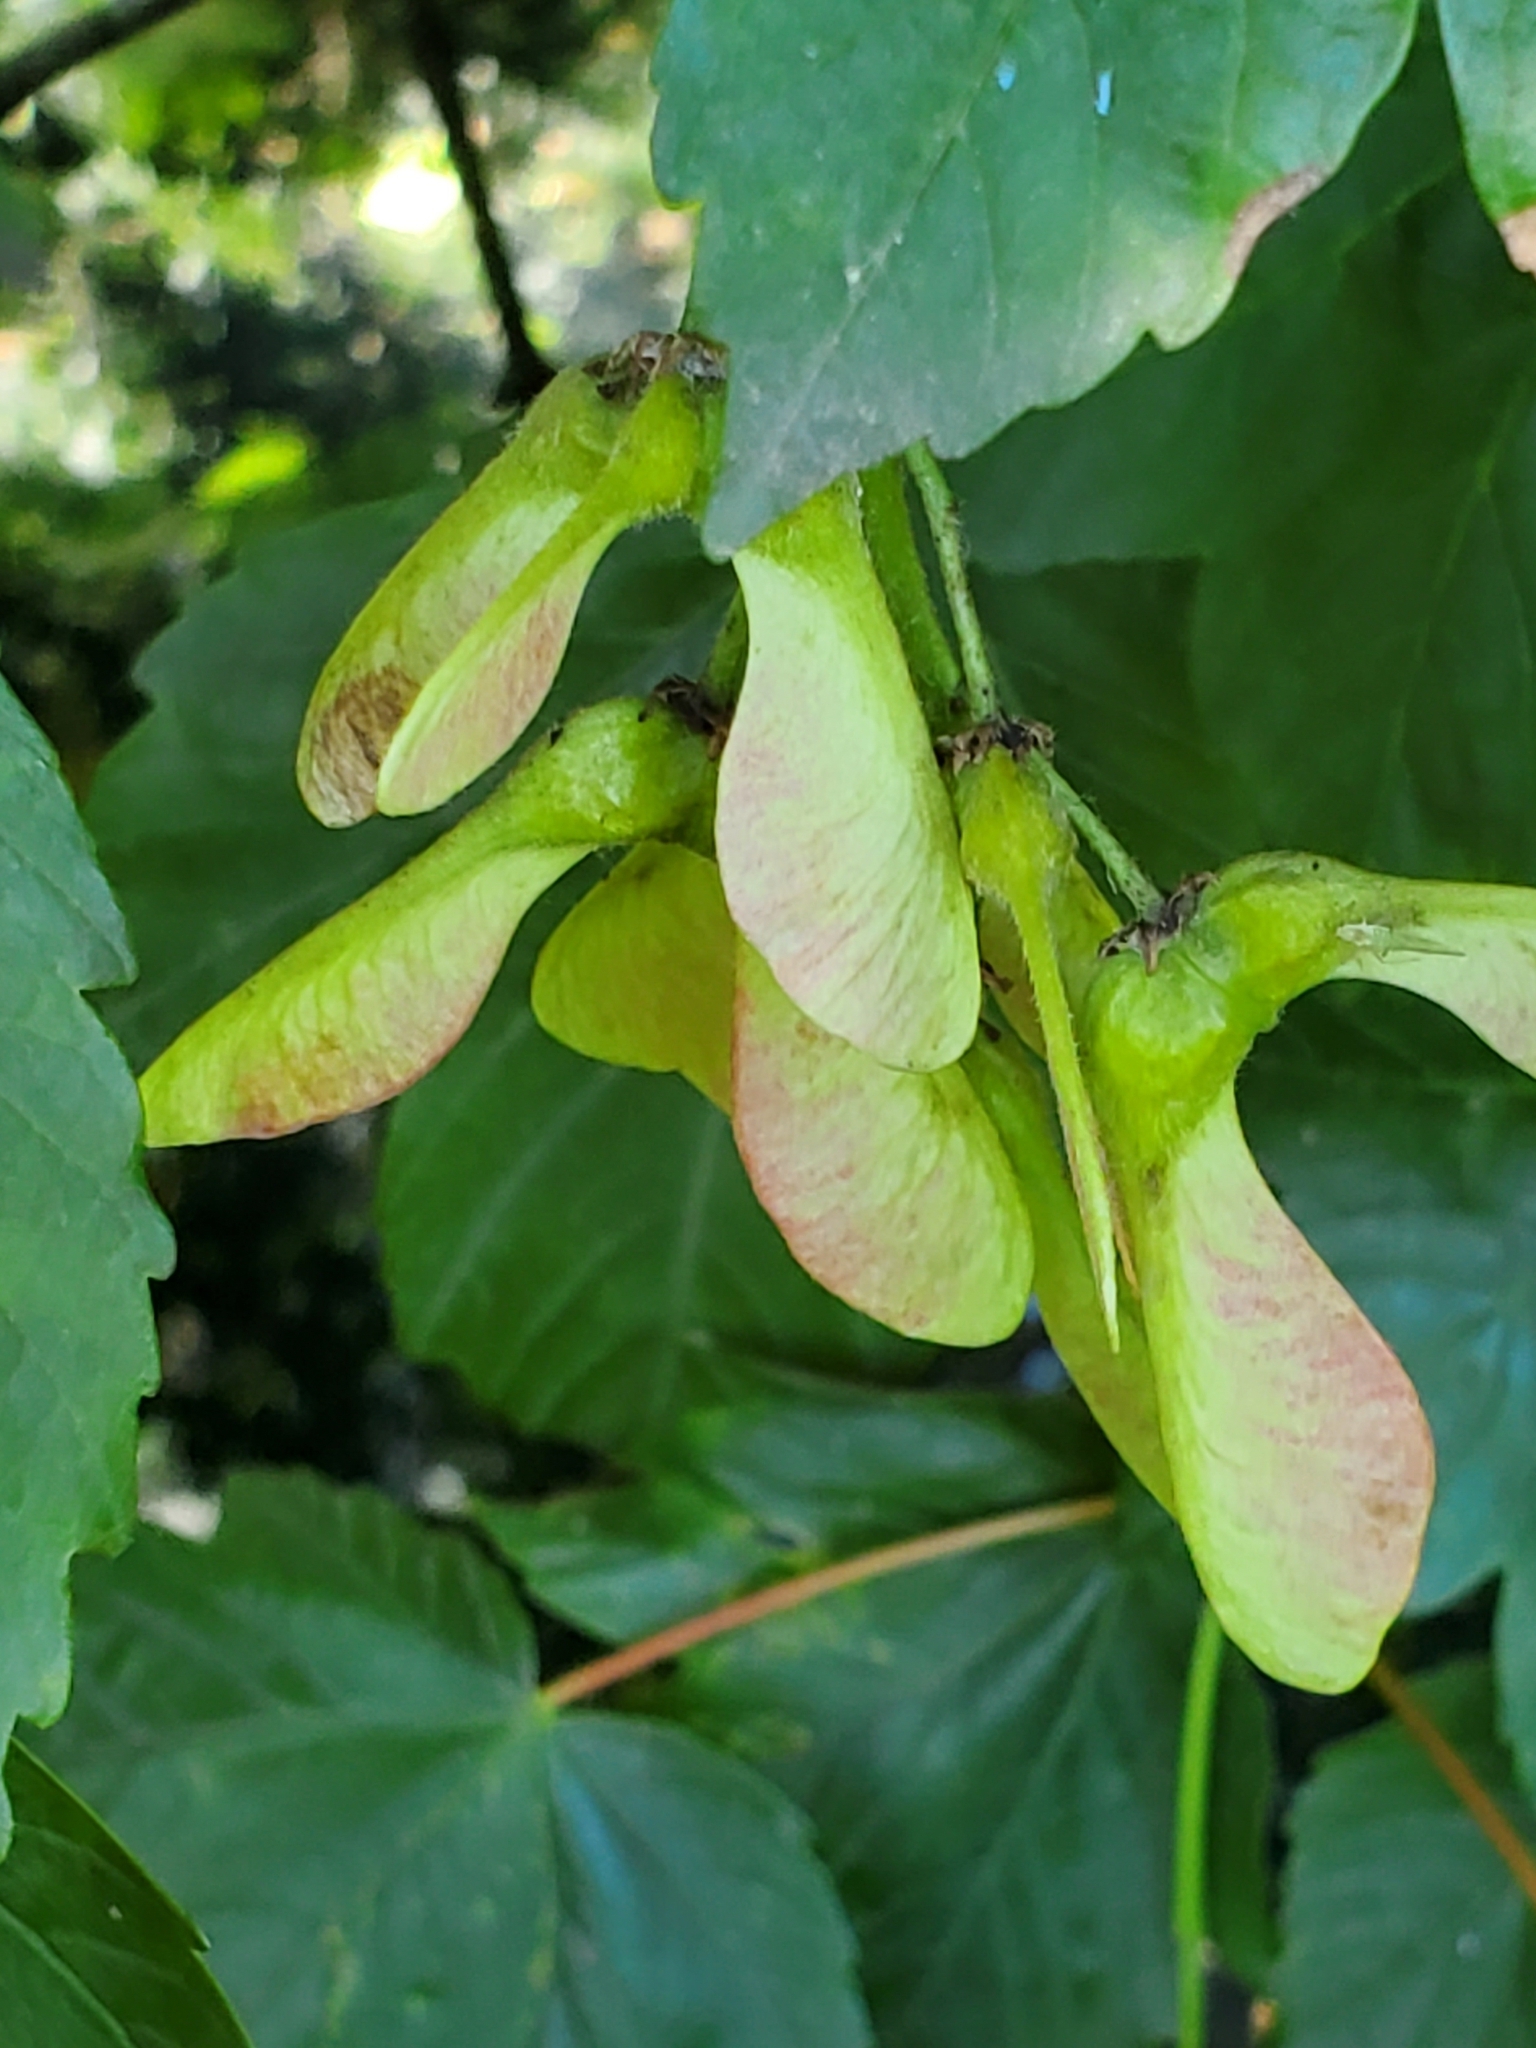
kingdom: Plantae
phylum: Tracheophyta
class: Magnoliopsida
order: Sapindales
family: Sapindaceae
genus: Acer
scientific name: Acer pseudoplatanus
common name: Sycamore
